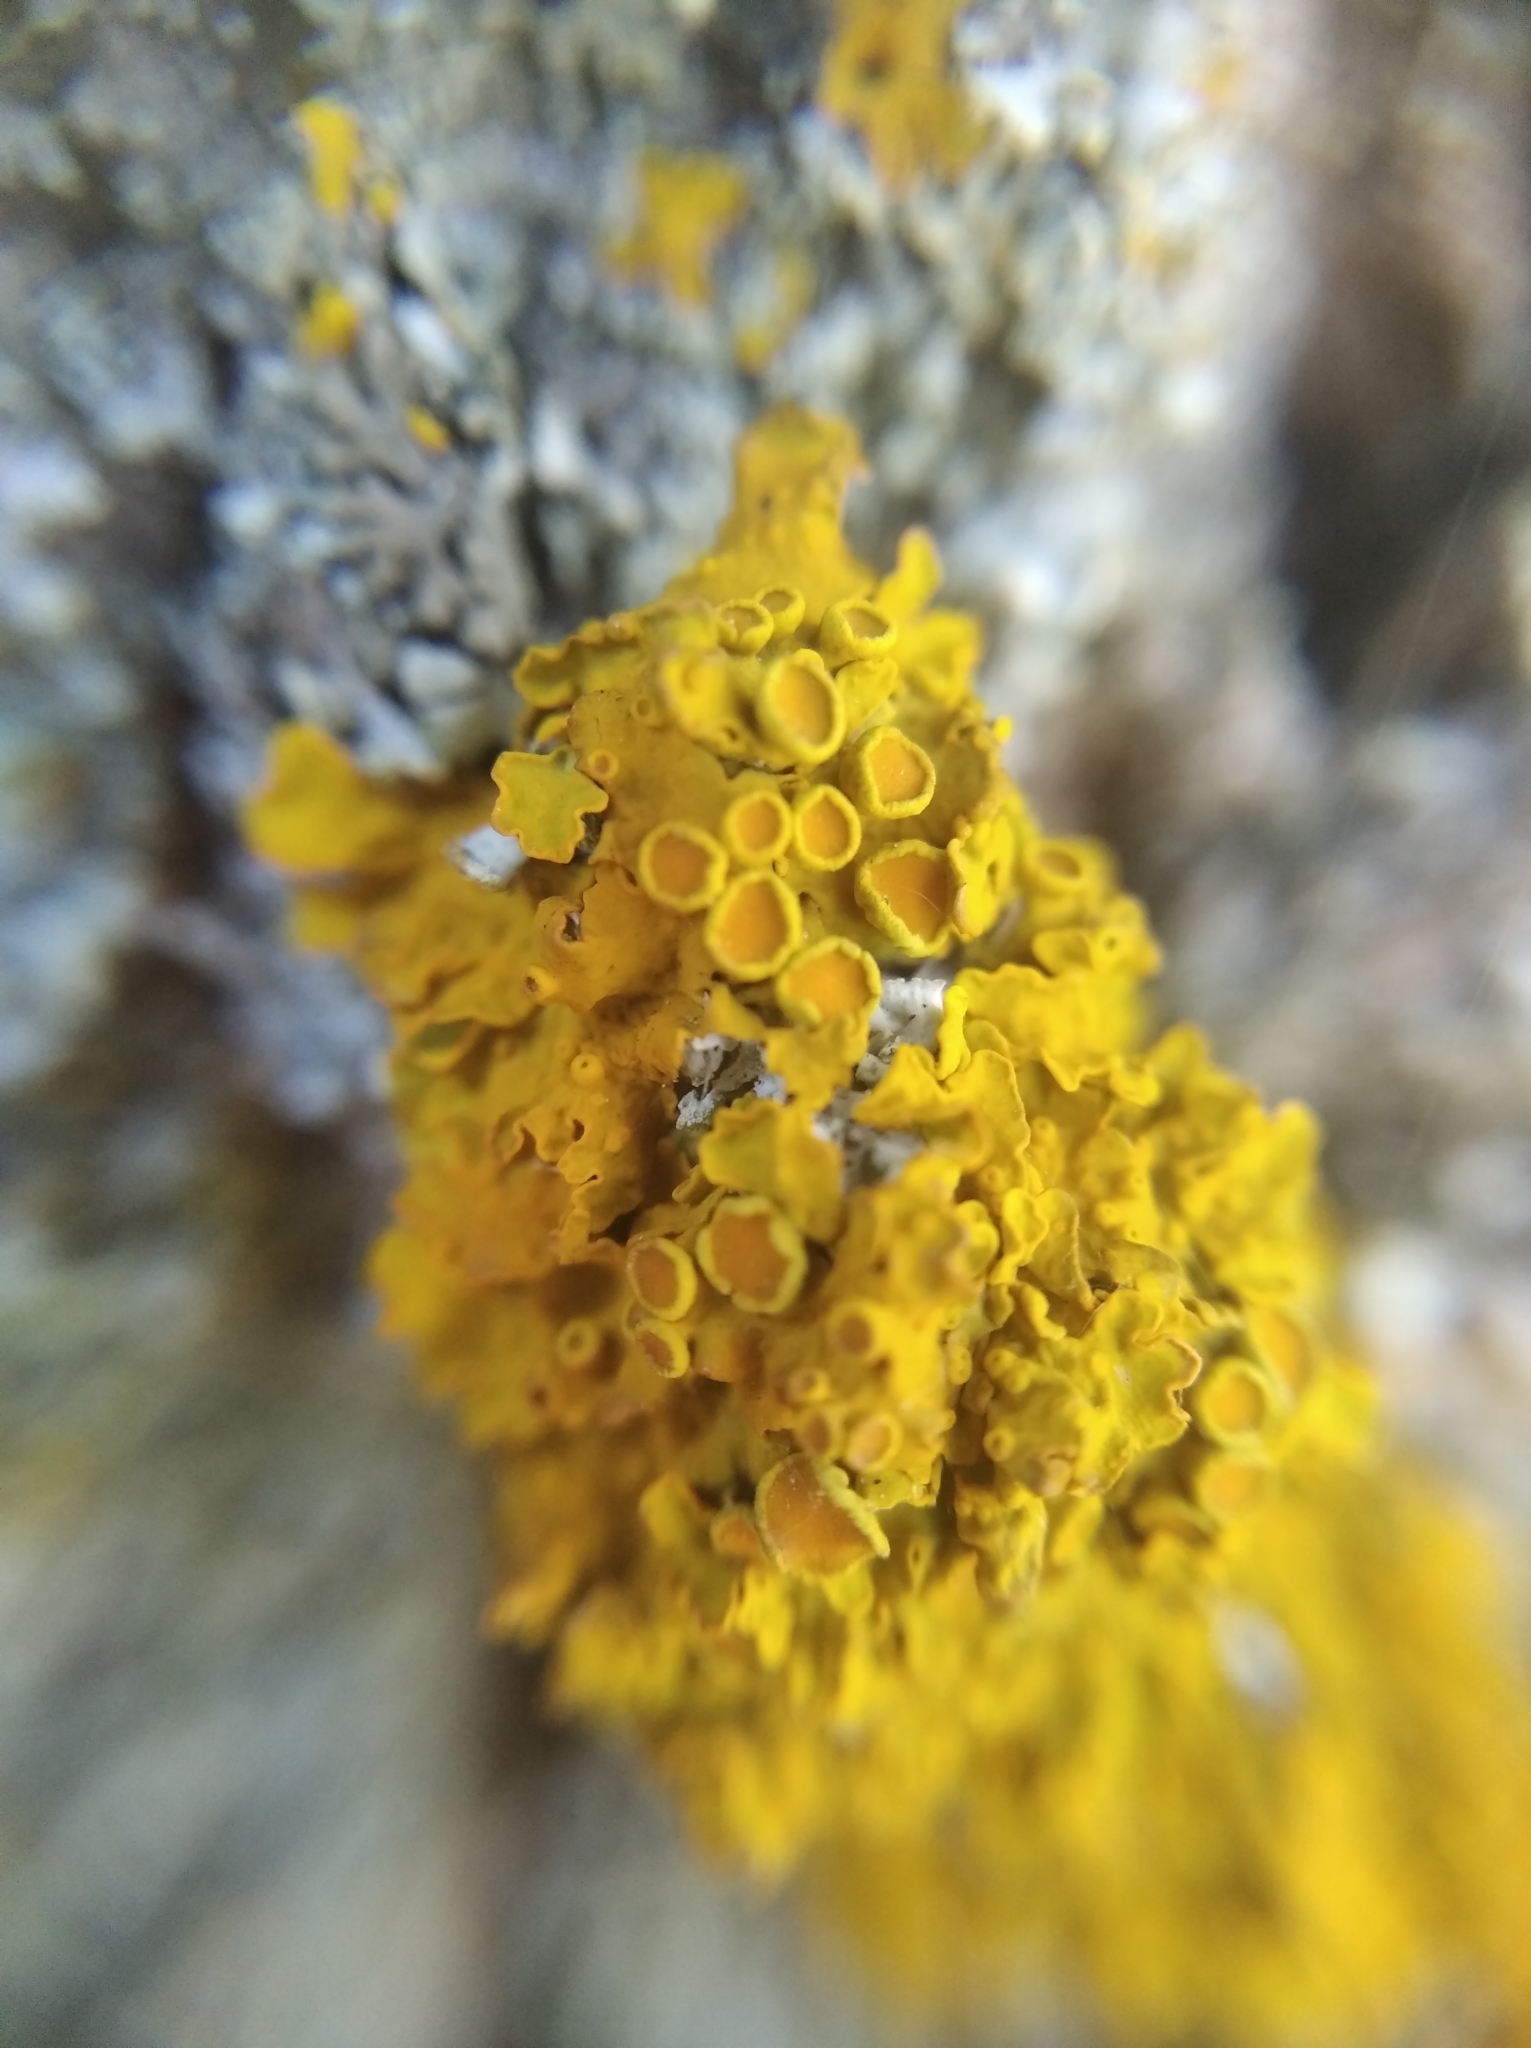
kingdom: Fungi
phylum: Ascomycota
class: Lecanoromycetes
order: Teloschistales
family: Teloschistaceae
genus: Xanthoria
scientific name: Xanthoria parietina
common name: Common orange lichen
